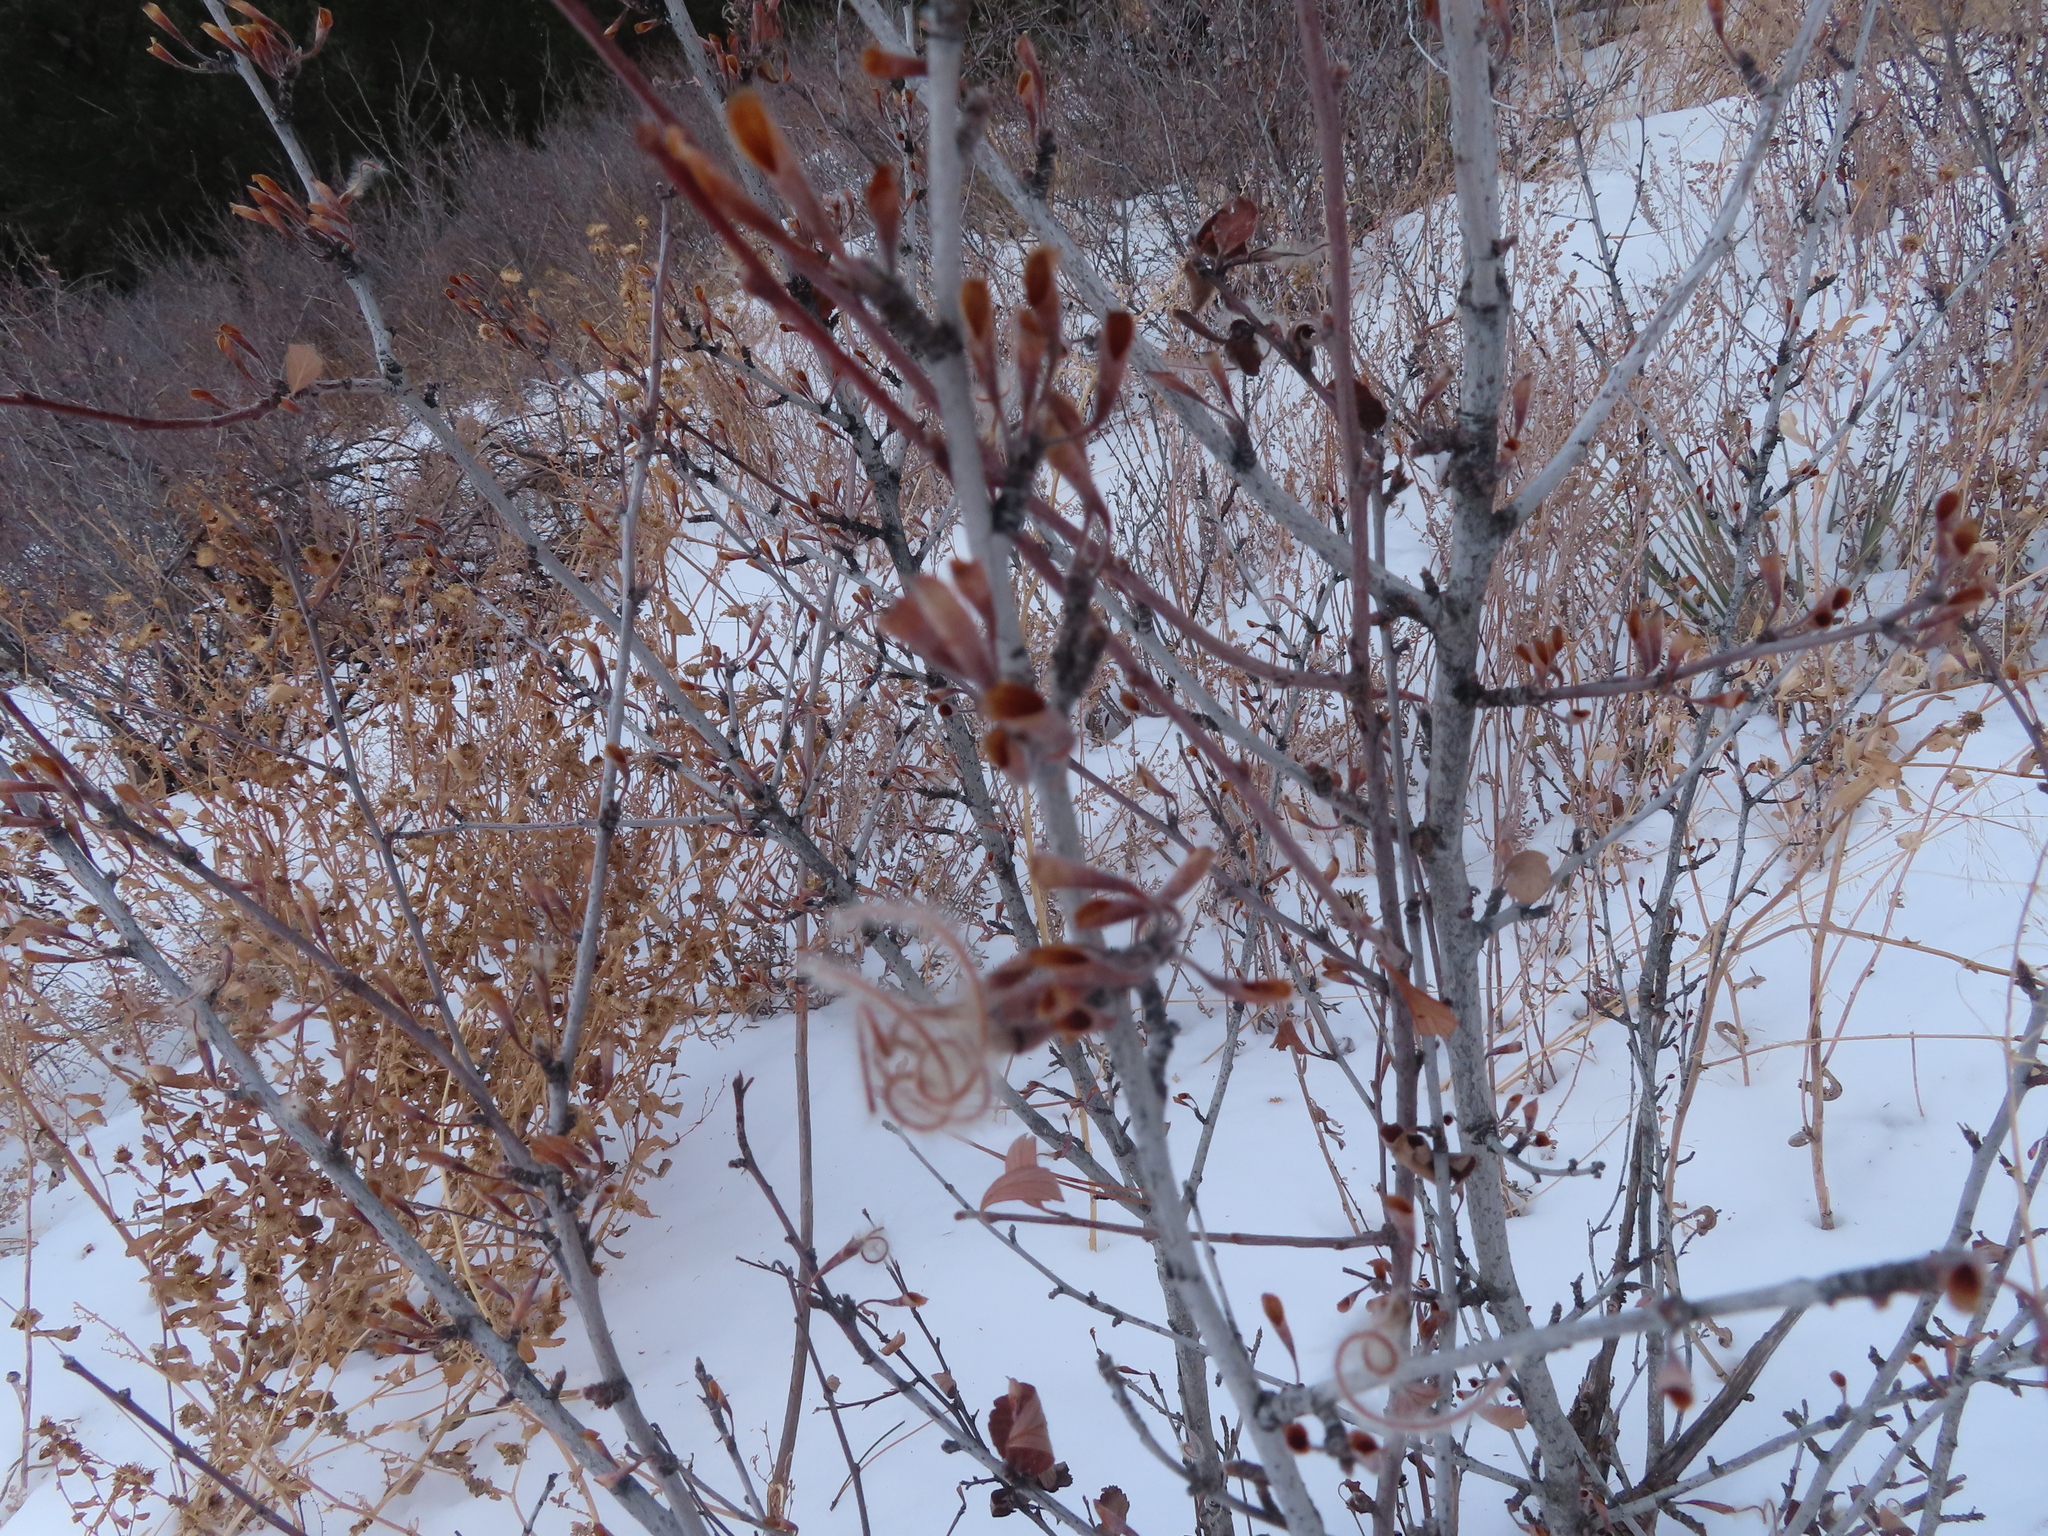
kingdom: Plantae
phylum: Tracheophyta
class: Magnoliopsida
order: Rosales
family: Rosaceae
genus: Cercocarpus
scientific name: Cercocarpus montanus
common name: Alder-leaf cercocarpus
